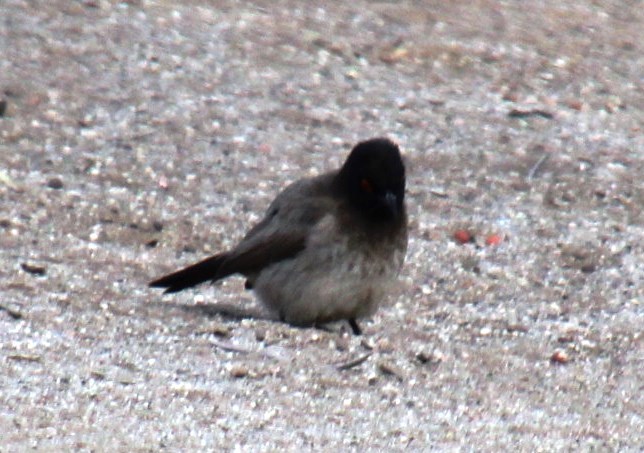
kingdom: Animalia
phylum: Chordata
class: Aves
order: Passeriformes
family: Pycnonotidae
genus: Pycnonotus
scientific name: Pycnonotus nigricans
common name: African red-eyed bulbul
